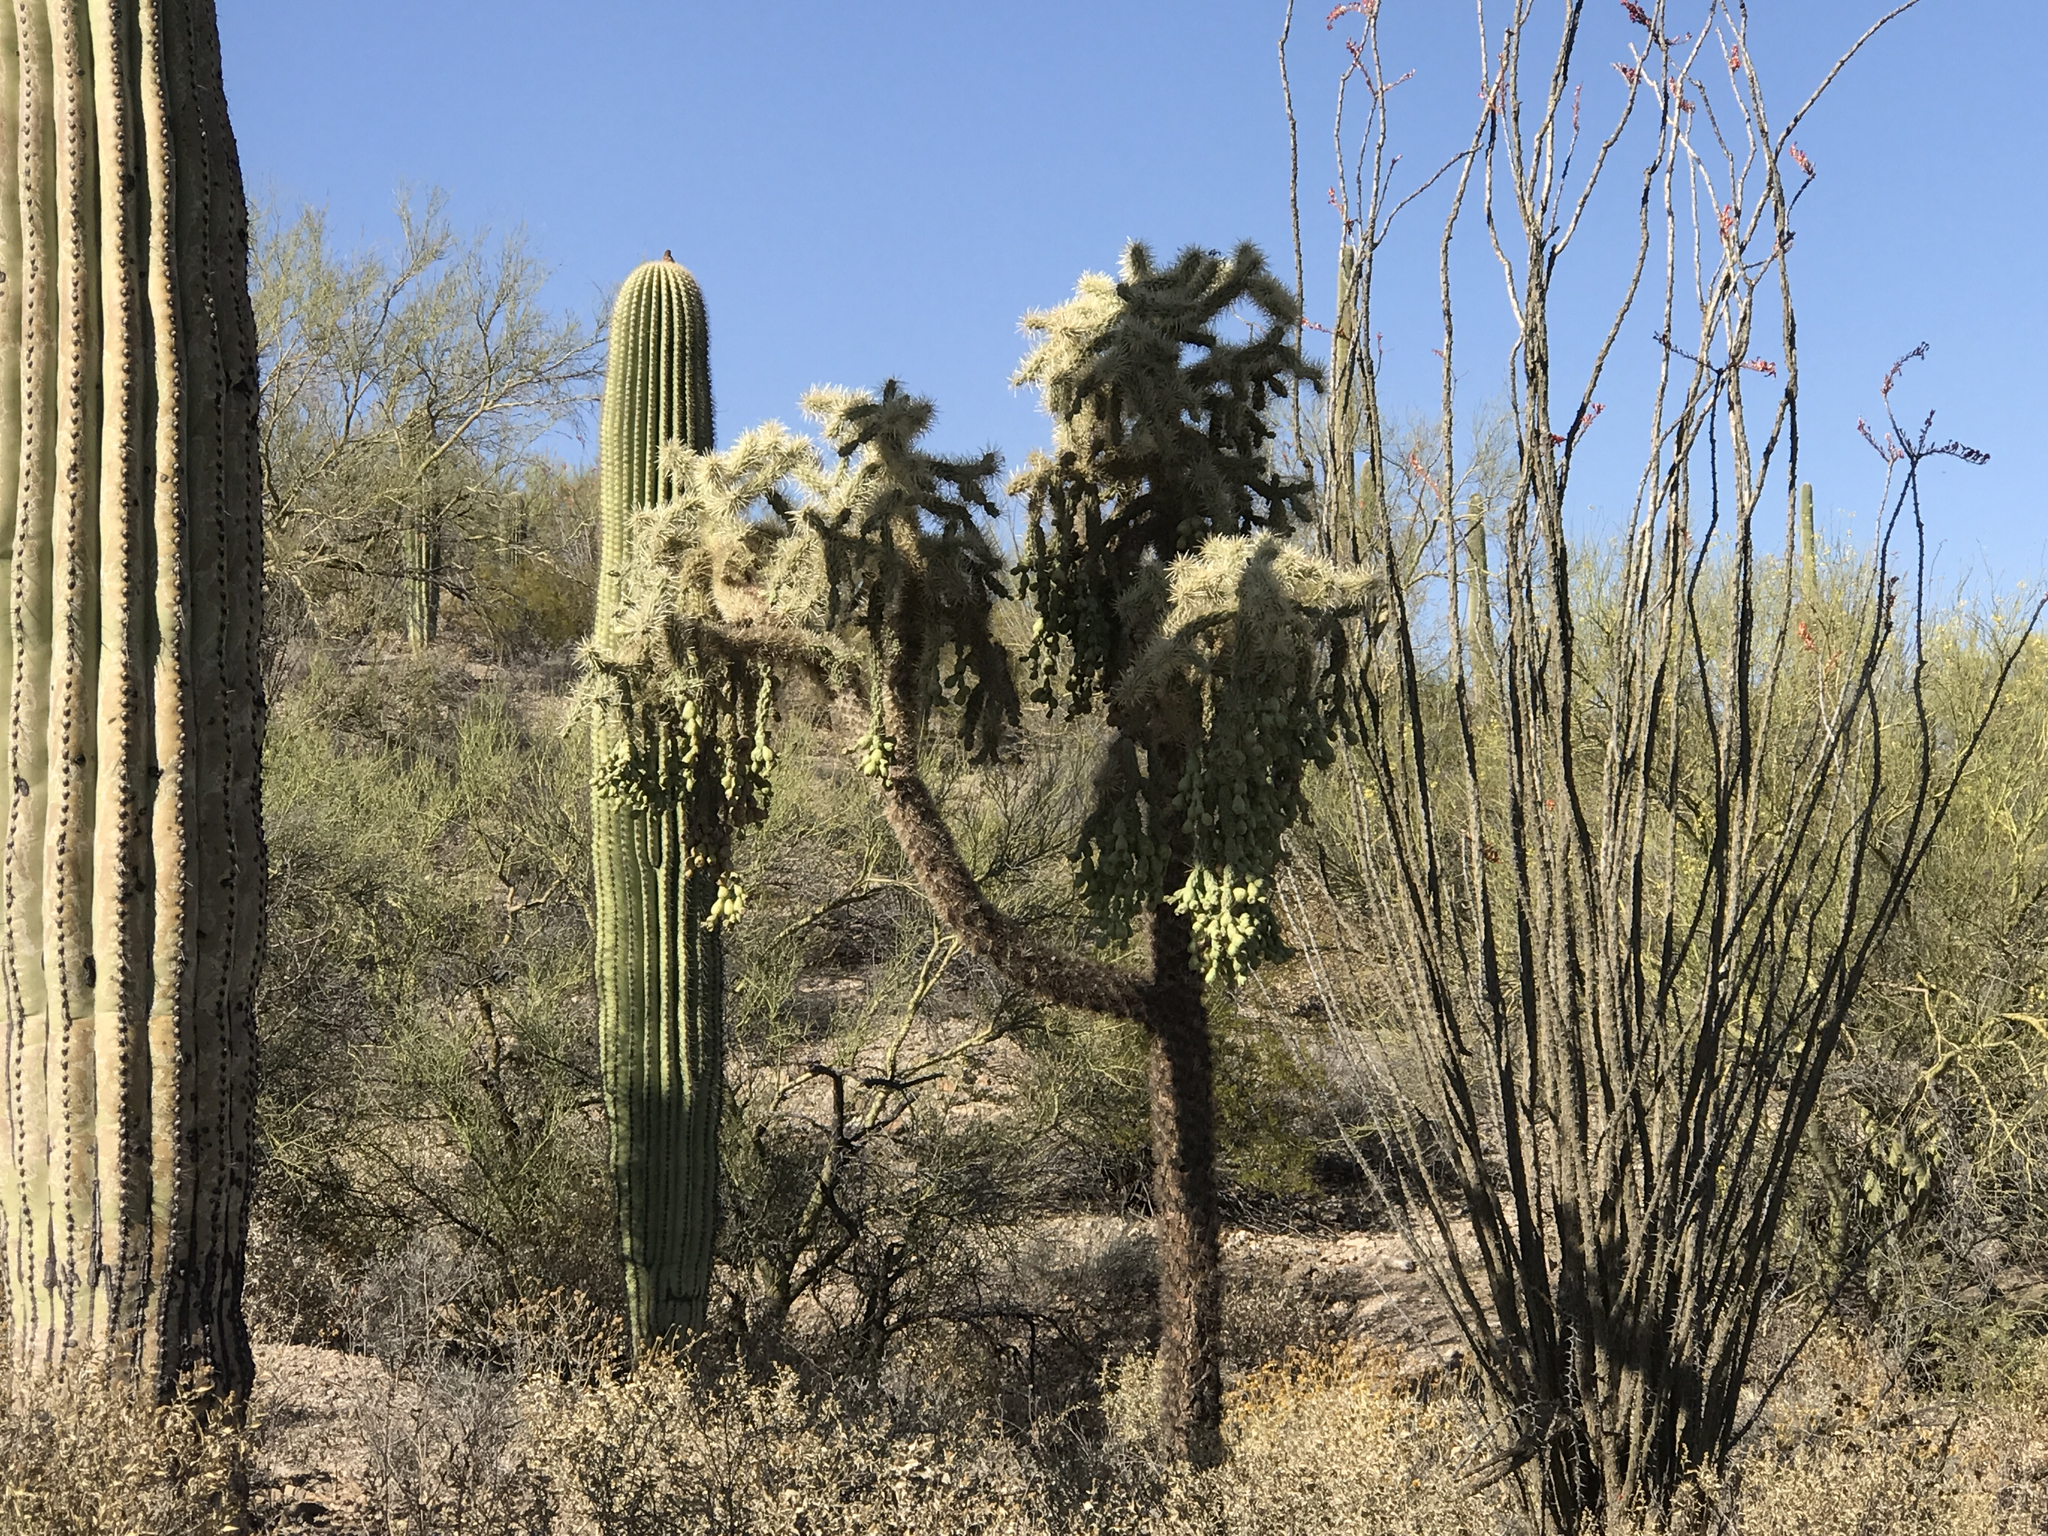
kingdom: Plantae
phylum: Tracheophyta
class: Magnoliopsida
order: Caryophyllales
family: Cactaceae
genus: Cylindropuntia
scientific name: Cylindropuntia fulgida
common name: Jumping cholla
